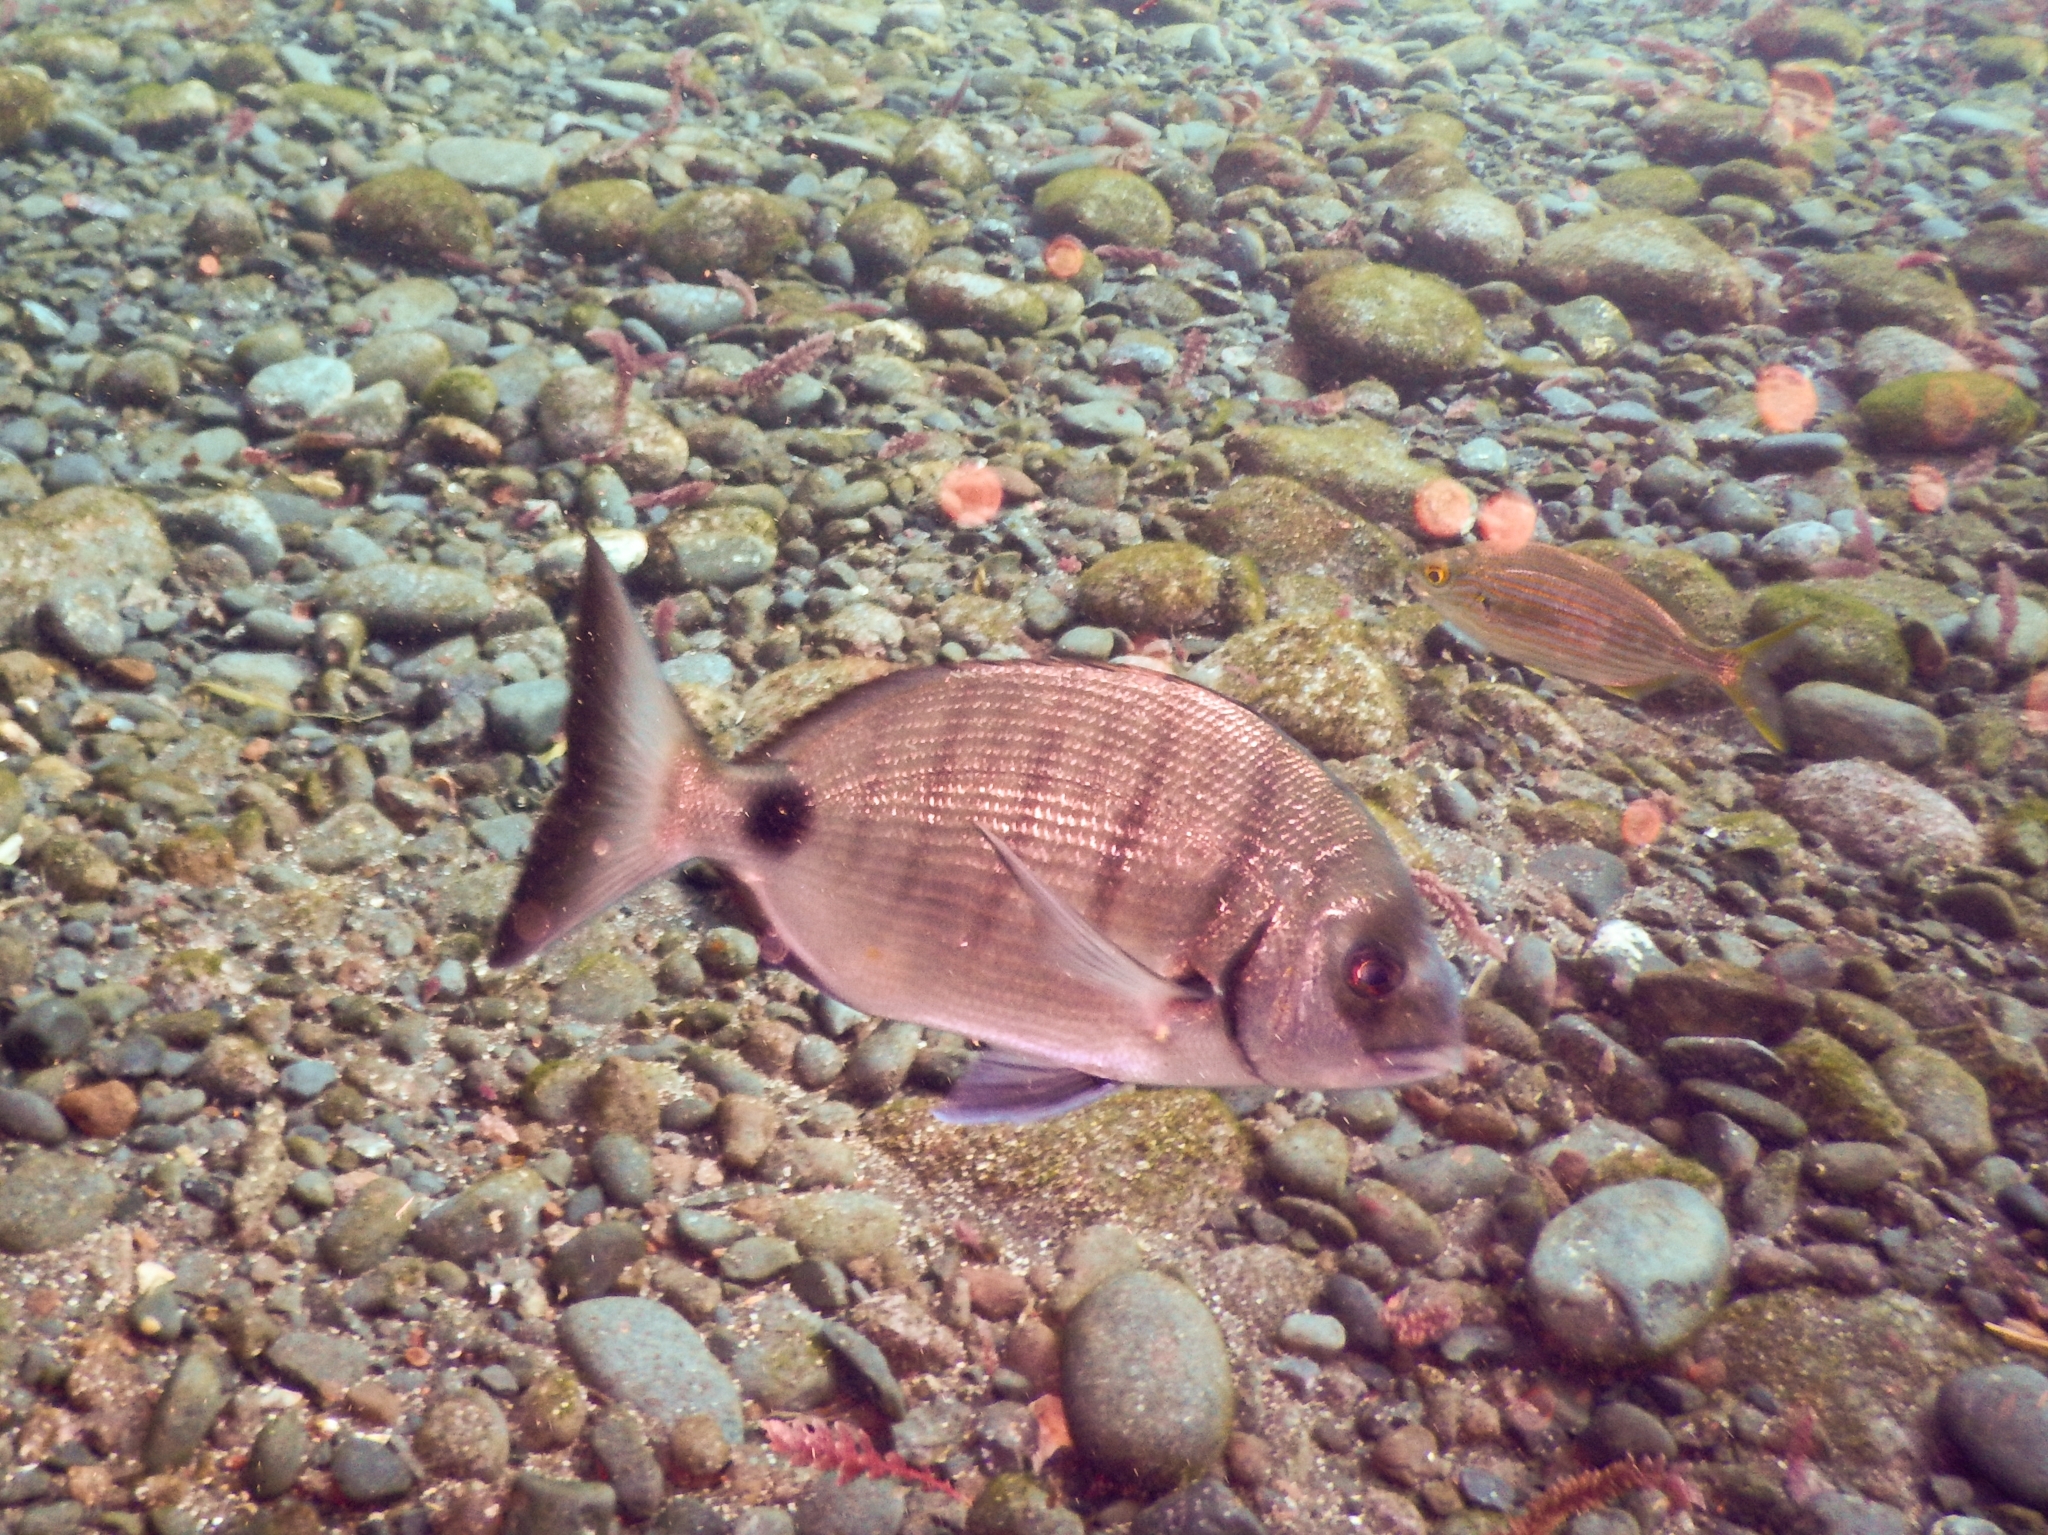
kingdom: Animalia
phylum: Chordata
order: Perciformes
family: Sparidae
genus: Diplodus
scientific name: Diplodus cadenati
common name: Moroccan white seabream
